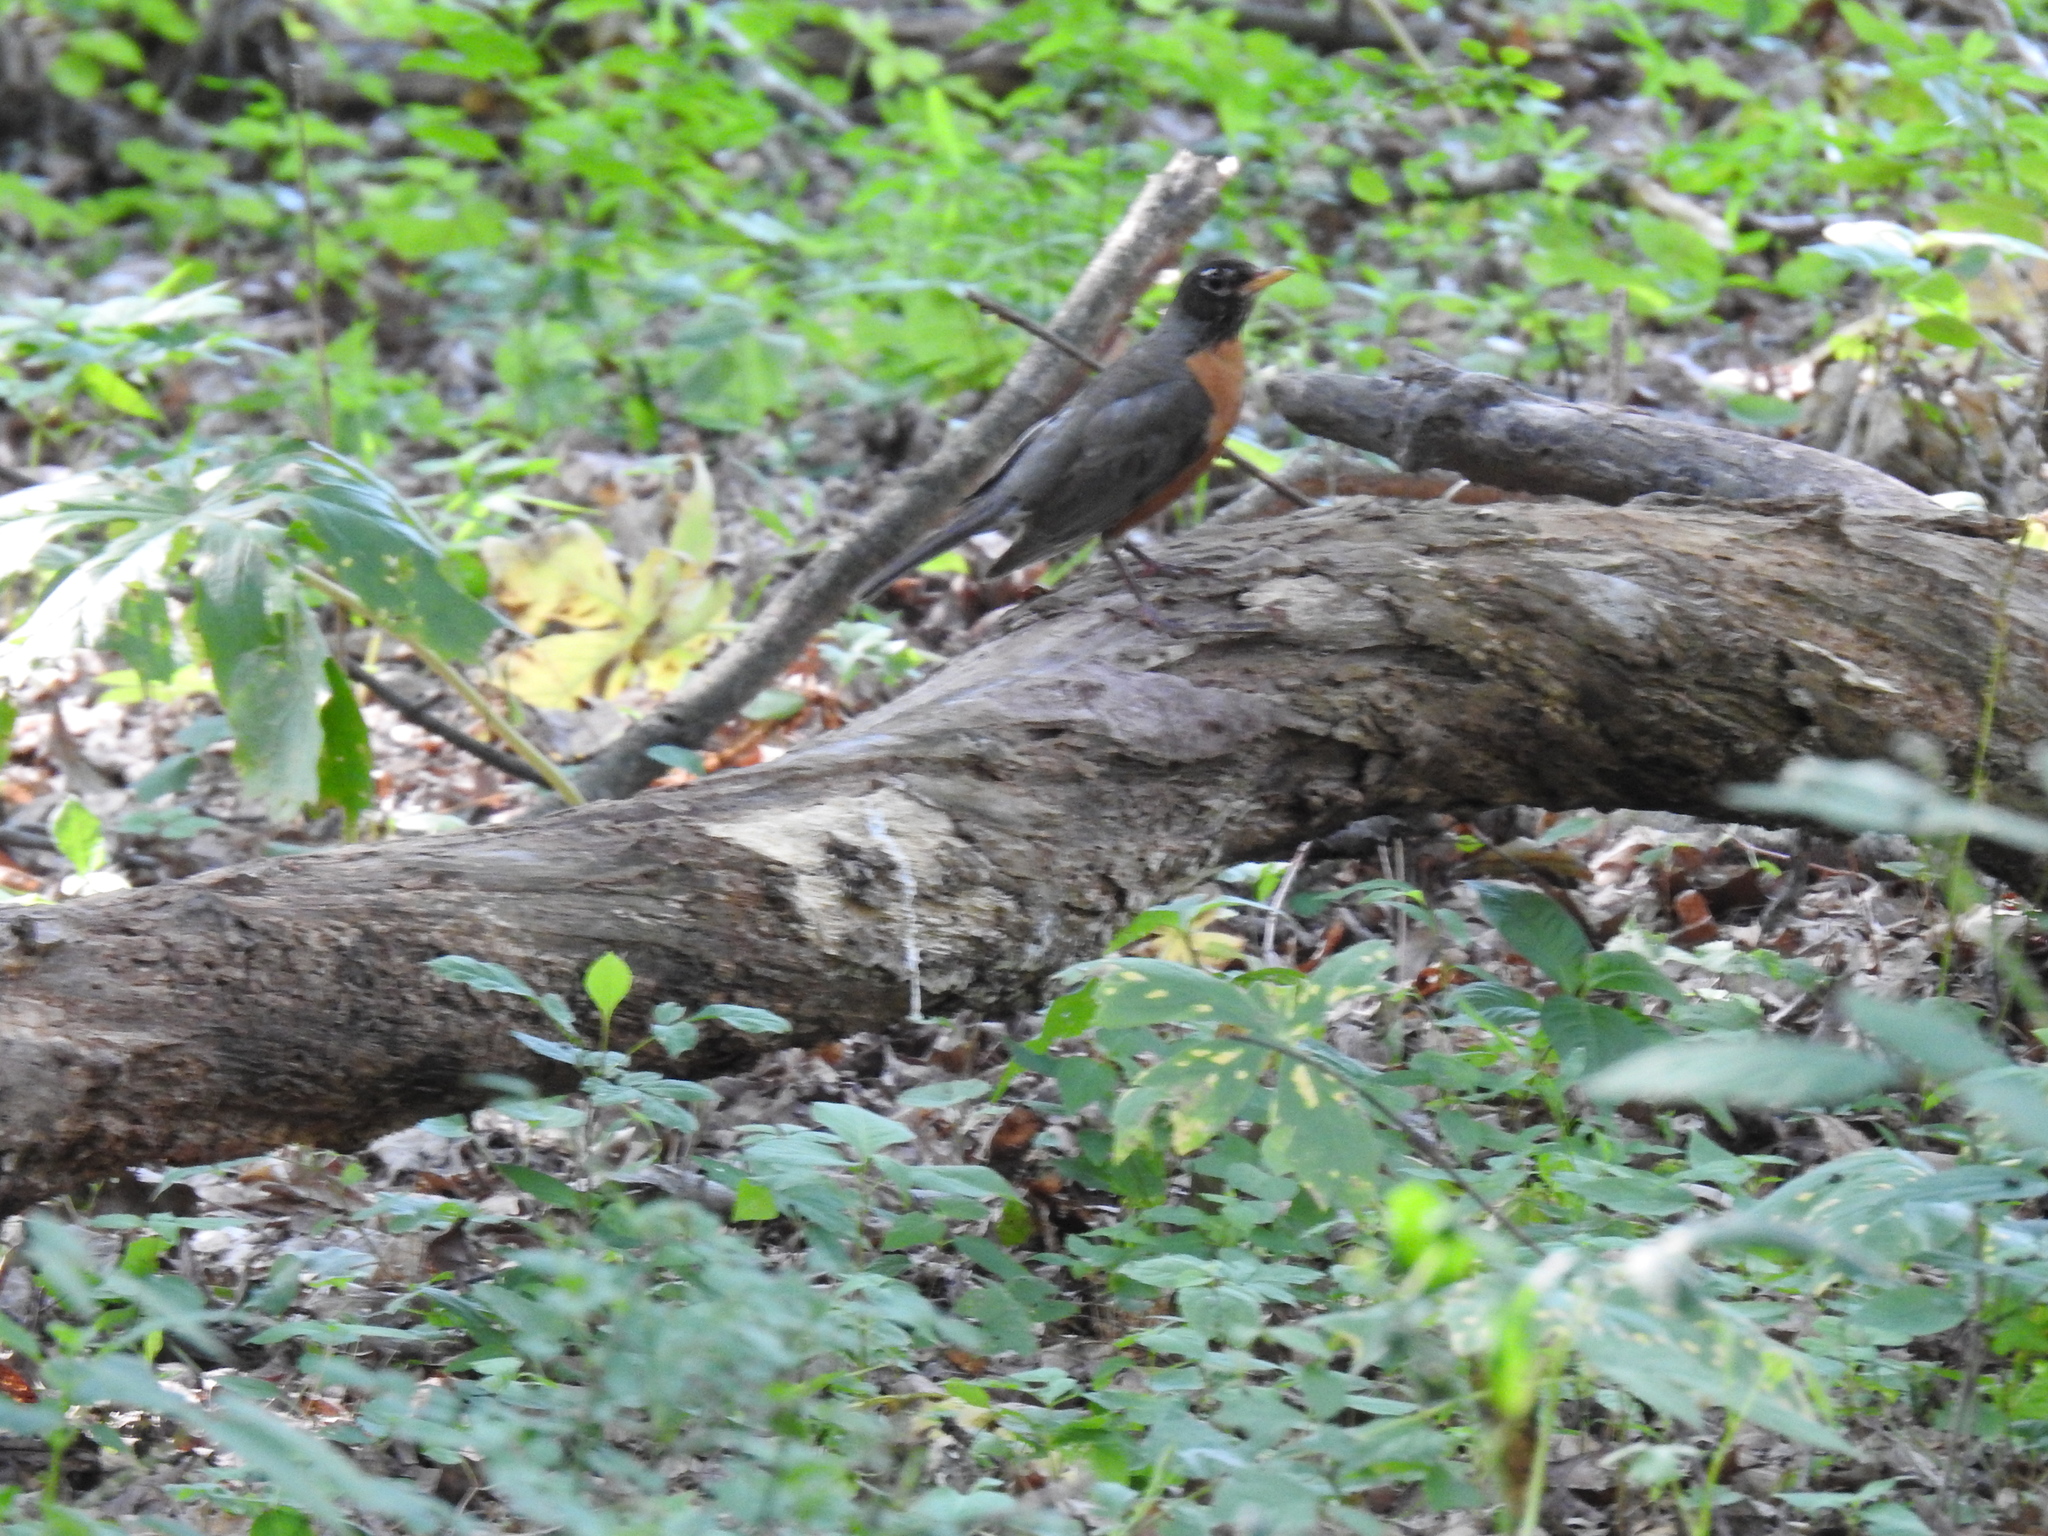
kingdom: Animalia
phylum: Chordata
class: Aves
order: Passeriformes
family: Turdidae
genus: Turdus
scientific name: Turdus migratorius
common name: American robin
